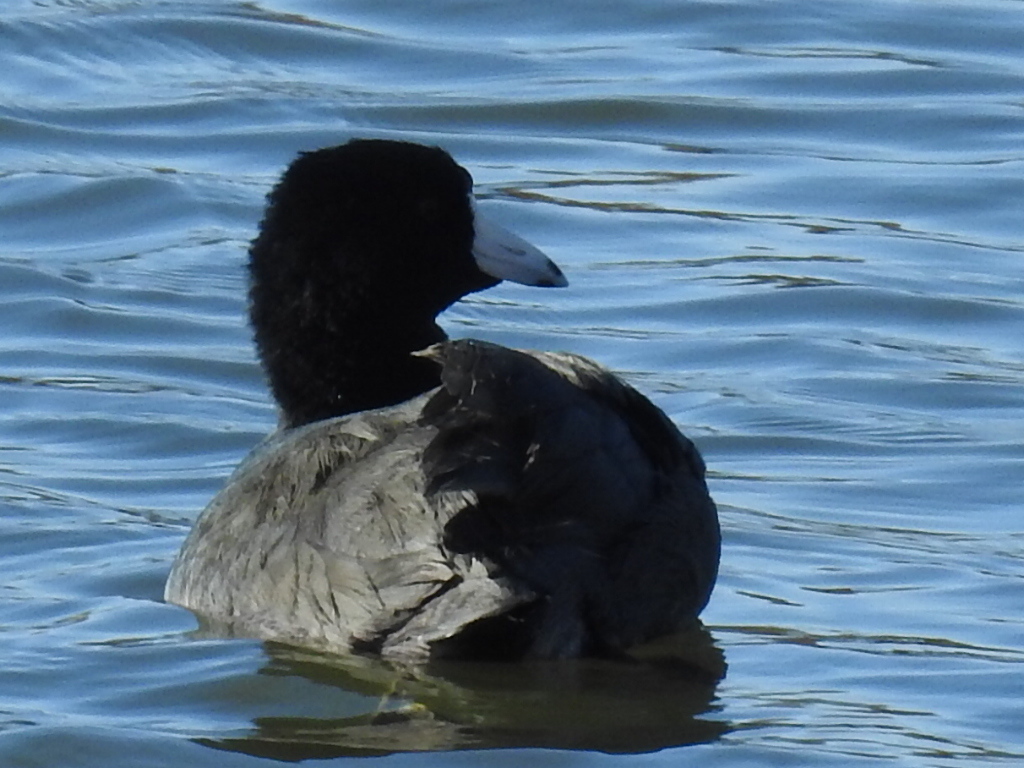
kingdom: Animalia
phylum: Chordata
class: Aves
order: Gruiformes
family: Rallidae
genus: Fulica
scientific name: Fulica americana
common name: American coot
